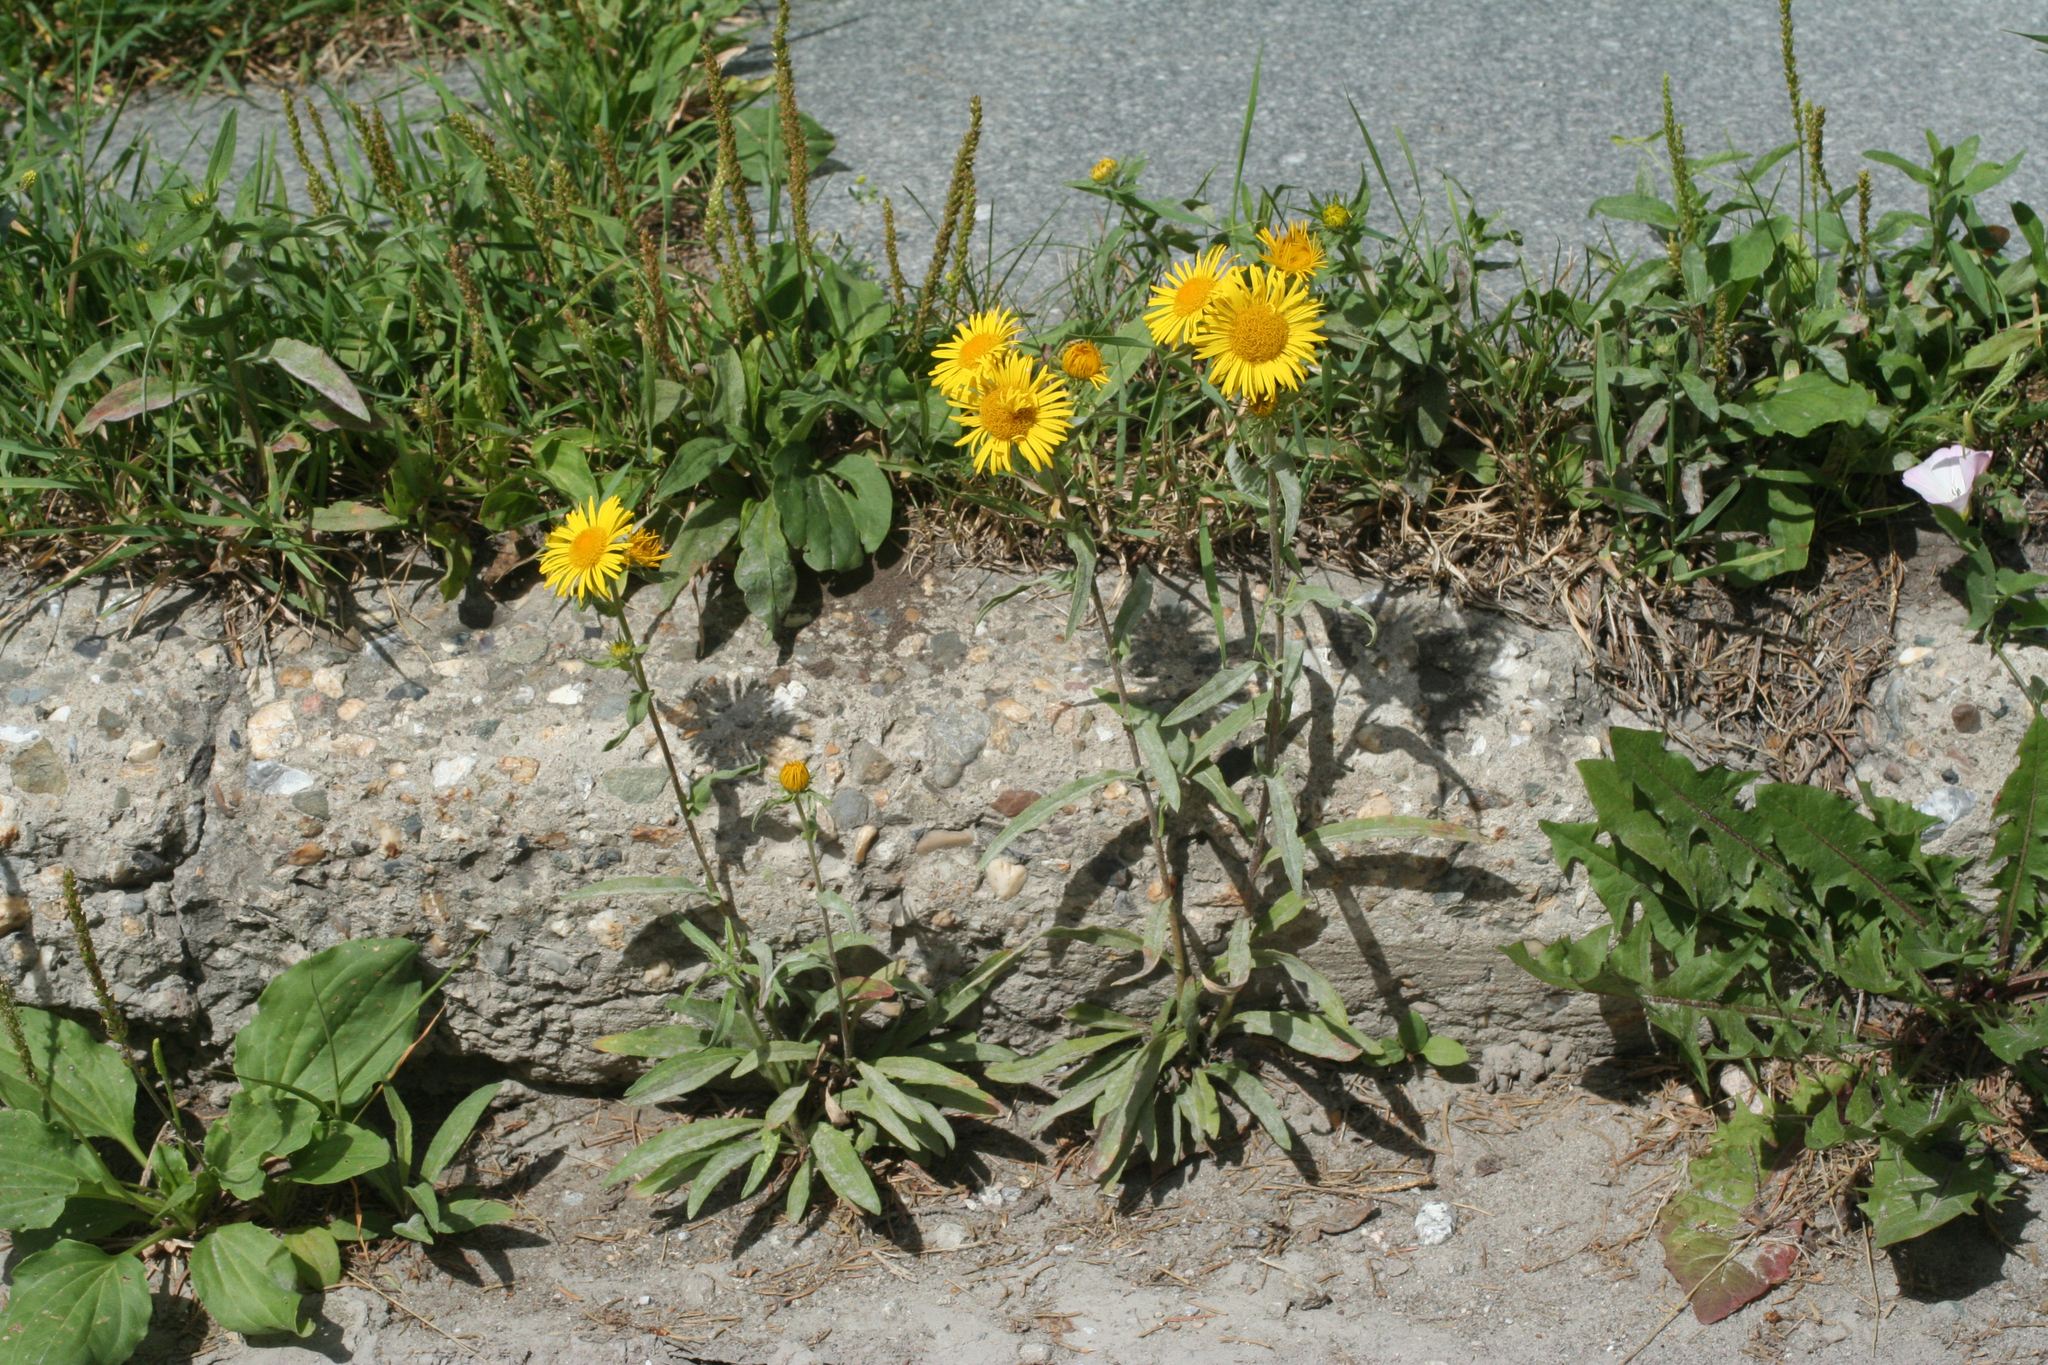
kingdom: Plantae
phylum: Tracheophyta
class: Magnoliopsida
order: Asterales
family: Asteraceae
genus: Pentanema
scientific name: Pentanema britannicum
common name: British elecampane
